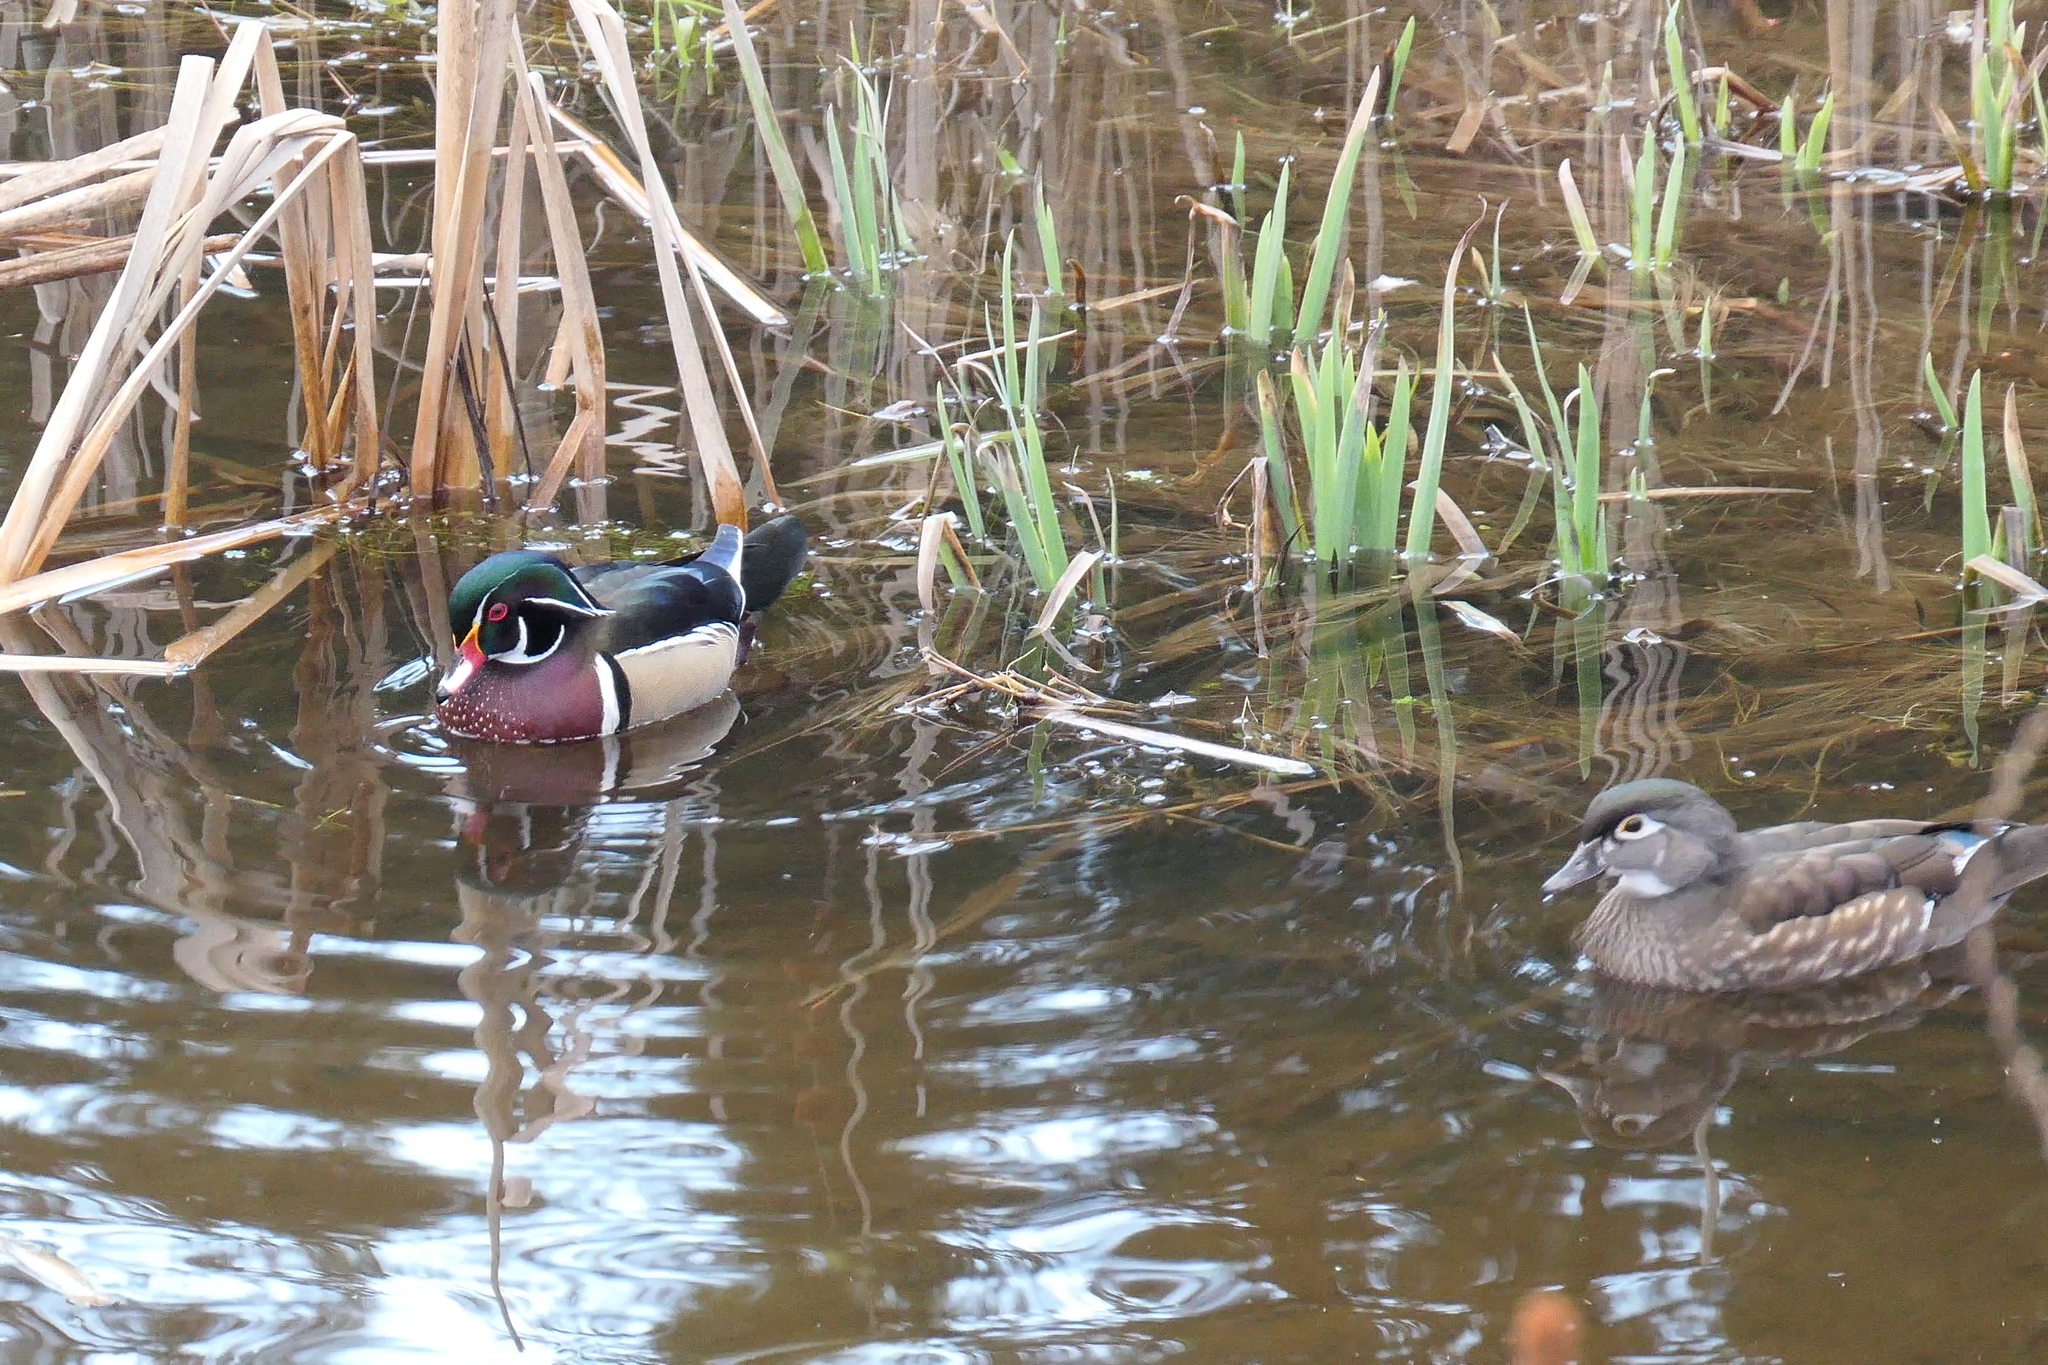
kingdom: Animalia
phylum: Chordata
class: Aves
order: Anseriformes
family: Anatidae
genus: Aix
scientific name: Aix sponsa
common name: Wood duck
